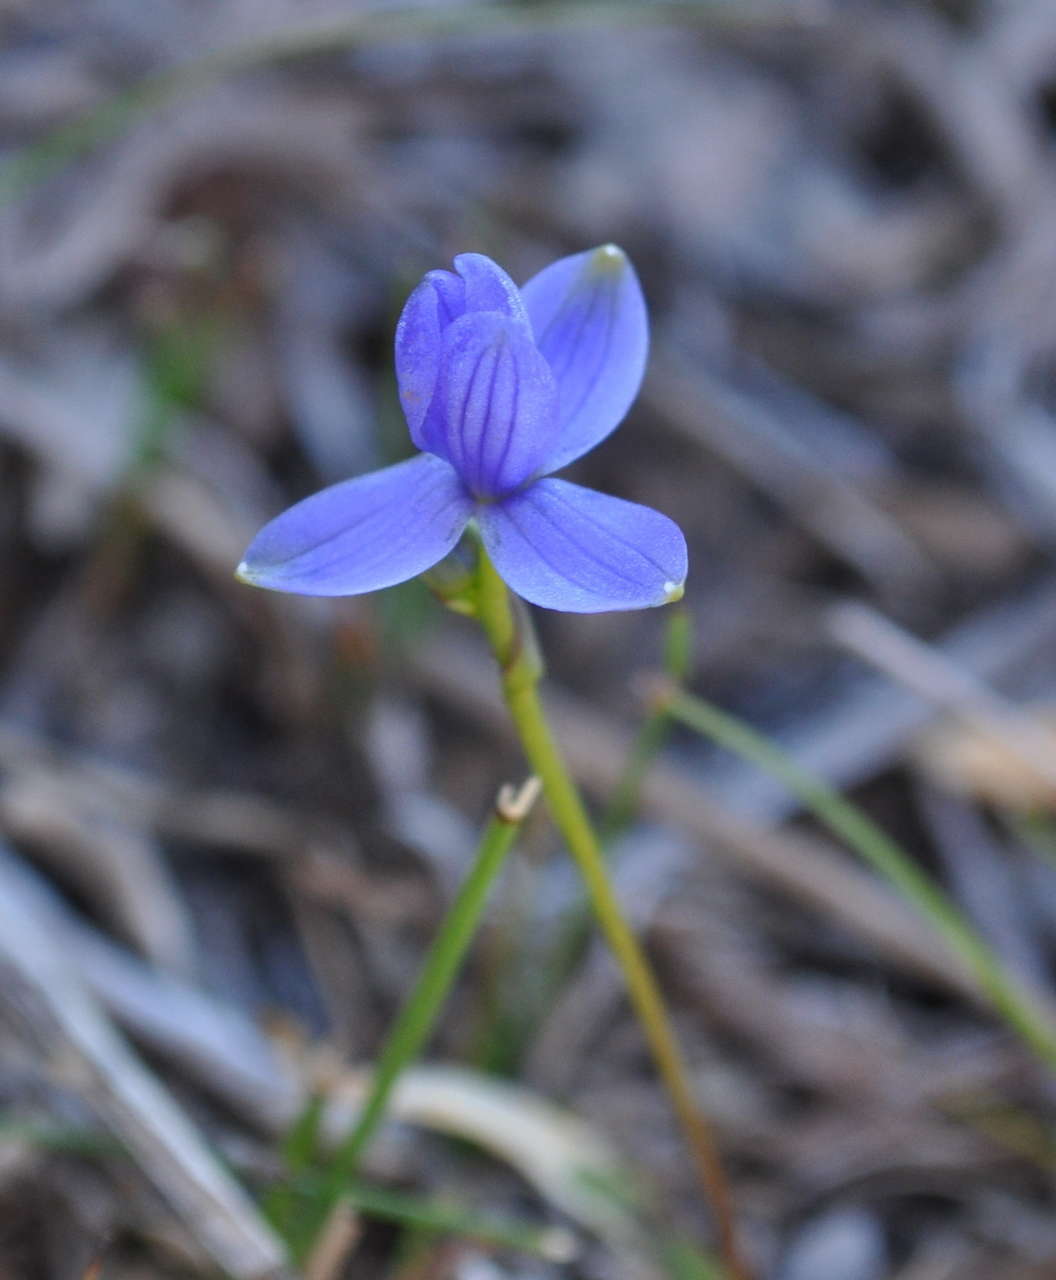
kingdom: Plantae
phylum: Tracheophyta
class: Liliopsida
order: Asparagales
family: Asphodelaceae
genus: Chamaescilla
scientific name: Chamaescilla corymbosa
